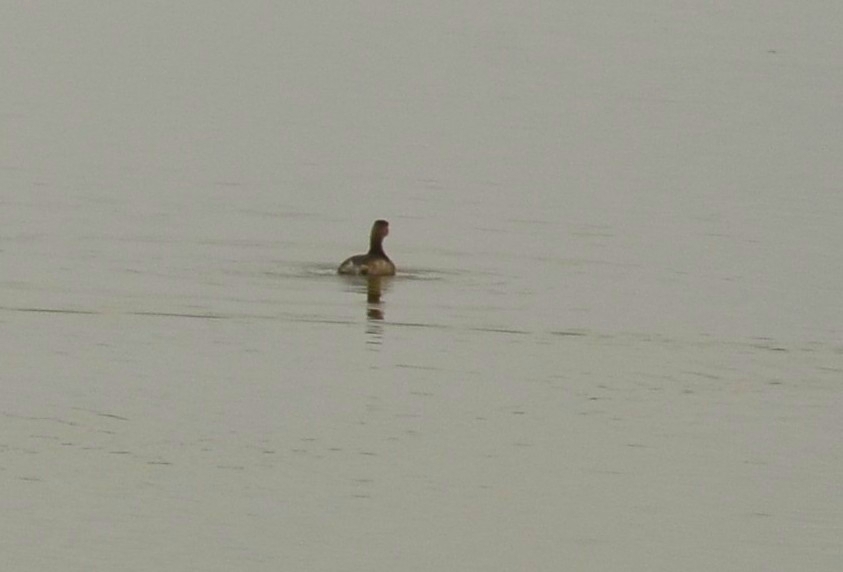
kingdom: Animalia
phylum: Chordata
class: Aves
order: Podicipediformes
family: Podicipedidae
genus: Tachybaptus
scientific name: Tachybaptus ruficollis
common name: Little grebe
